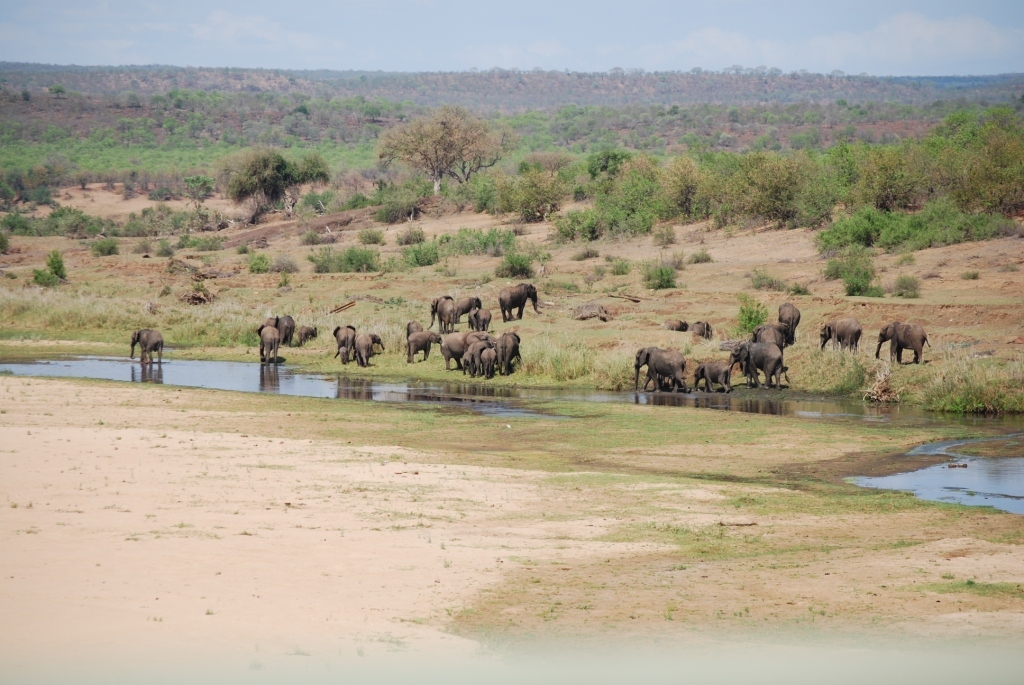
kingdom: Animalia
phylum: Chordata
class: Mammalia
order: Proboscidea
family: Elephantidae
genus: Loxodonta
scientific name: Loxodonta africana
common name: African elephant
